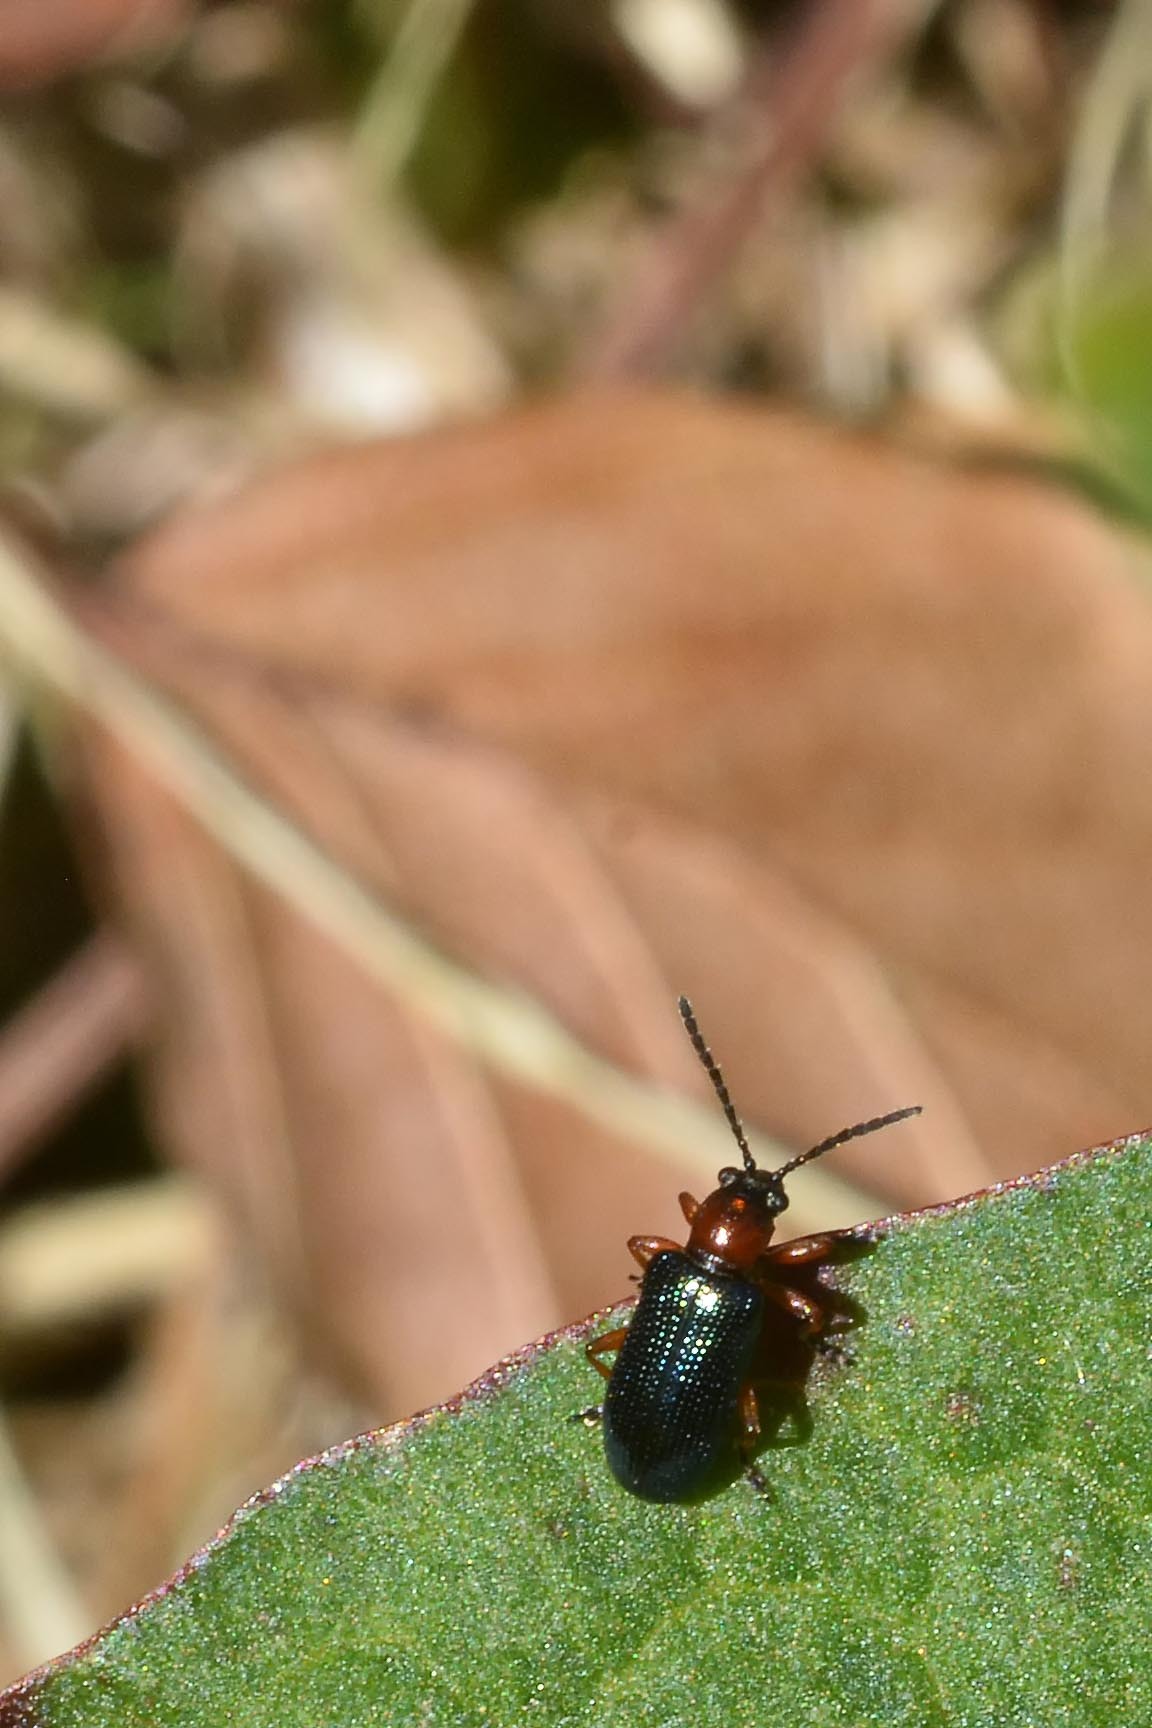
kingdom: Animalia
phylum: Arthropoda
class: Insecta
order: Coleoptera
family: Chrysomelidae
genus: Oulema
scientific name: Oulema
